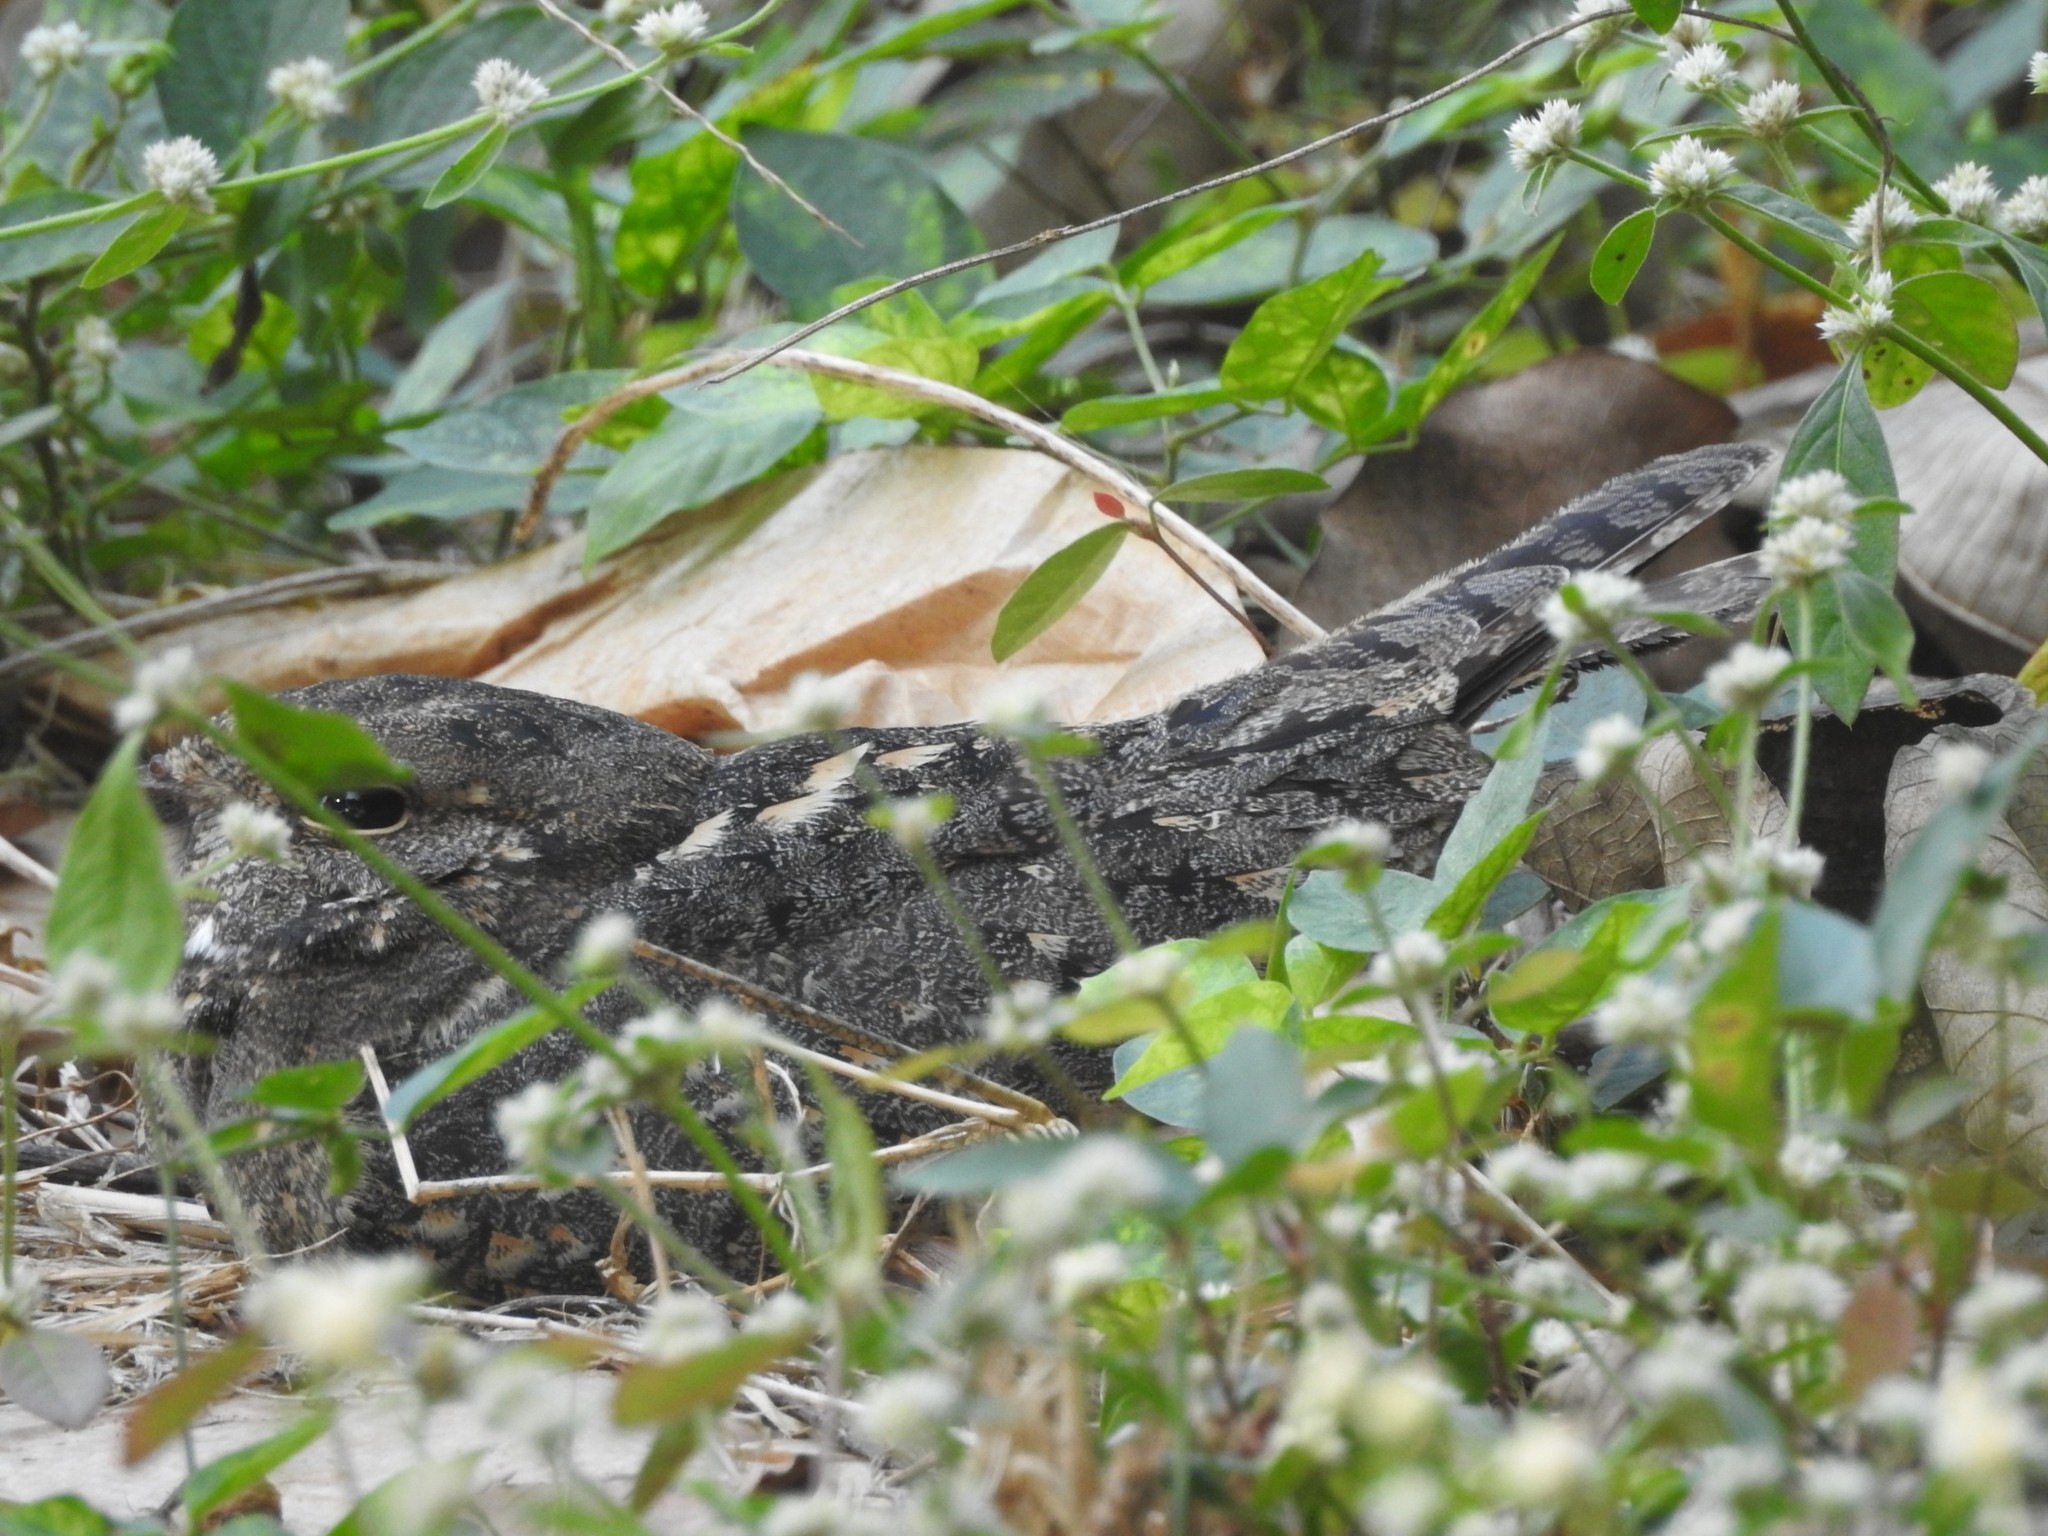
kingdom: Animalia
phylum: Chordata
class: Aves
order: Caprimulgiformes
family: Caprimulgidae
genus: Caprimulgus
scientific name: Caprimulgus affinis
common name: Savanna nightjar
